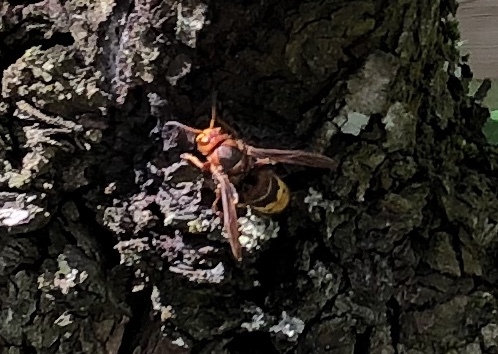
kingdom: Animalia
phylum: Arthropoda
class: Insecta
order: Hymenoptera
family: Vespidae
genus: Vespa
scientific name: Vespa crabro
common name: Hornet
